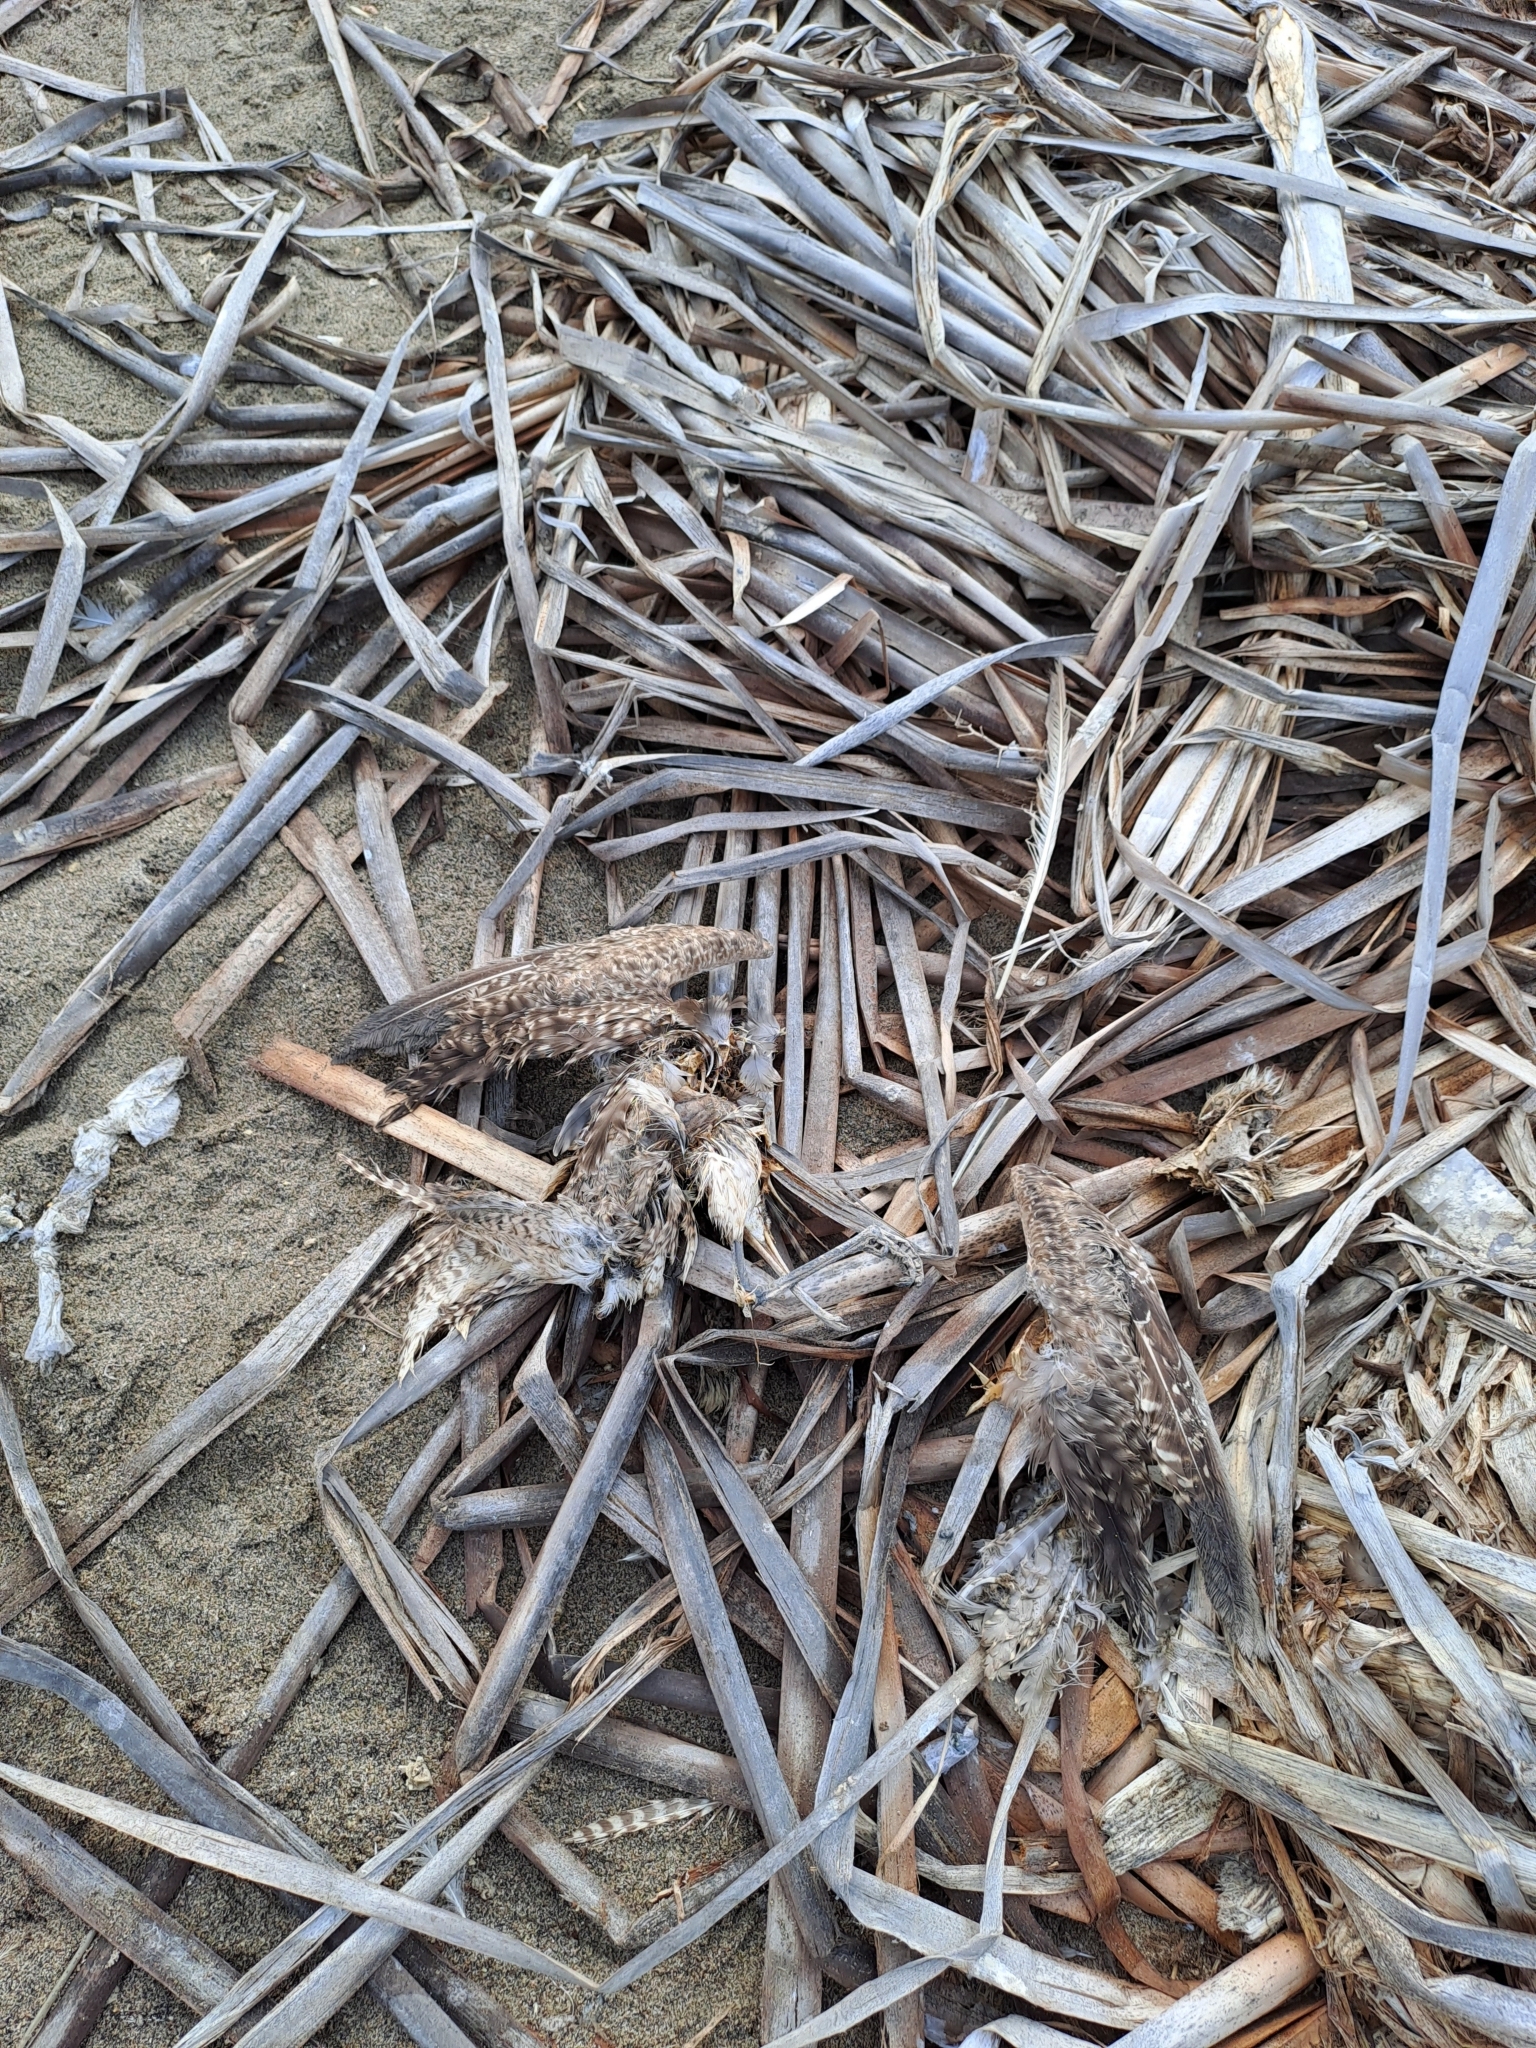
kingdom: Animalia
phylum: Chordata
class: Aves
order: Charadriiformes
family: Scolopacidae
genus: Numenius
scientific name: Numenius phaeopus
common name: Whimbrel
